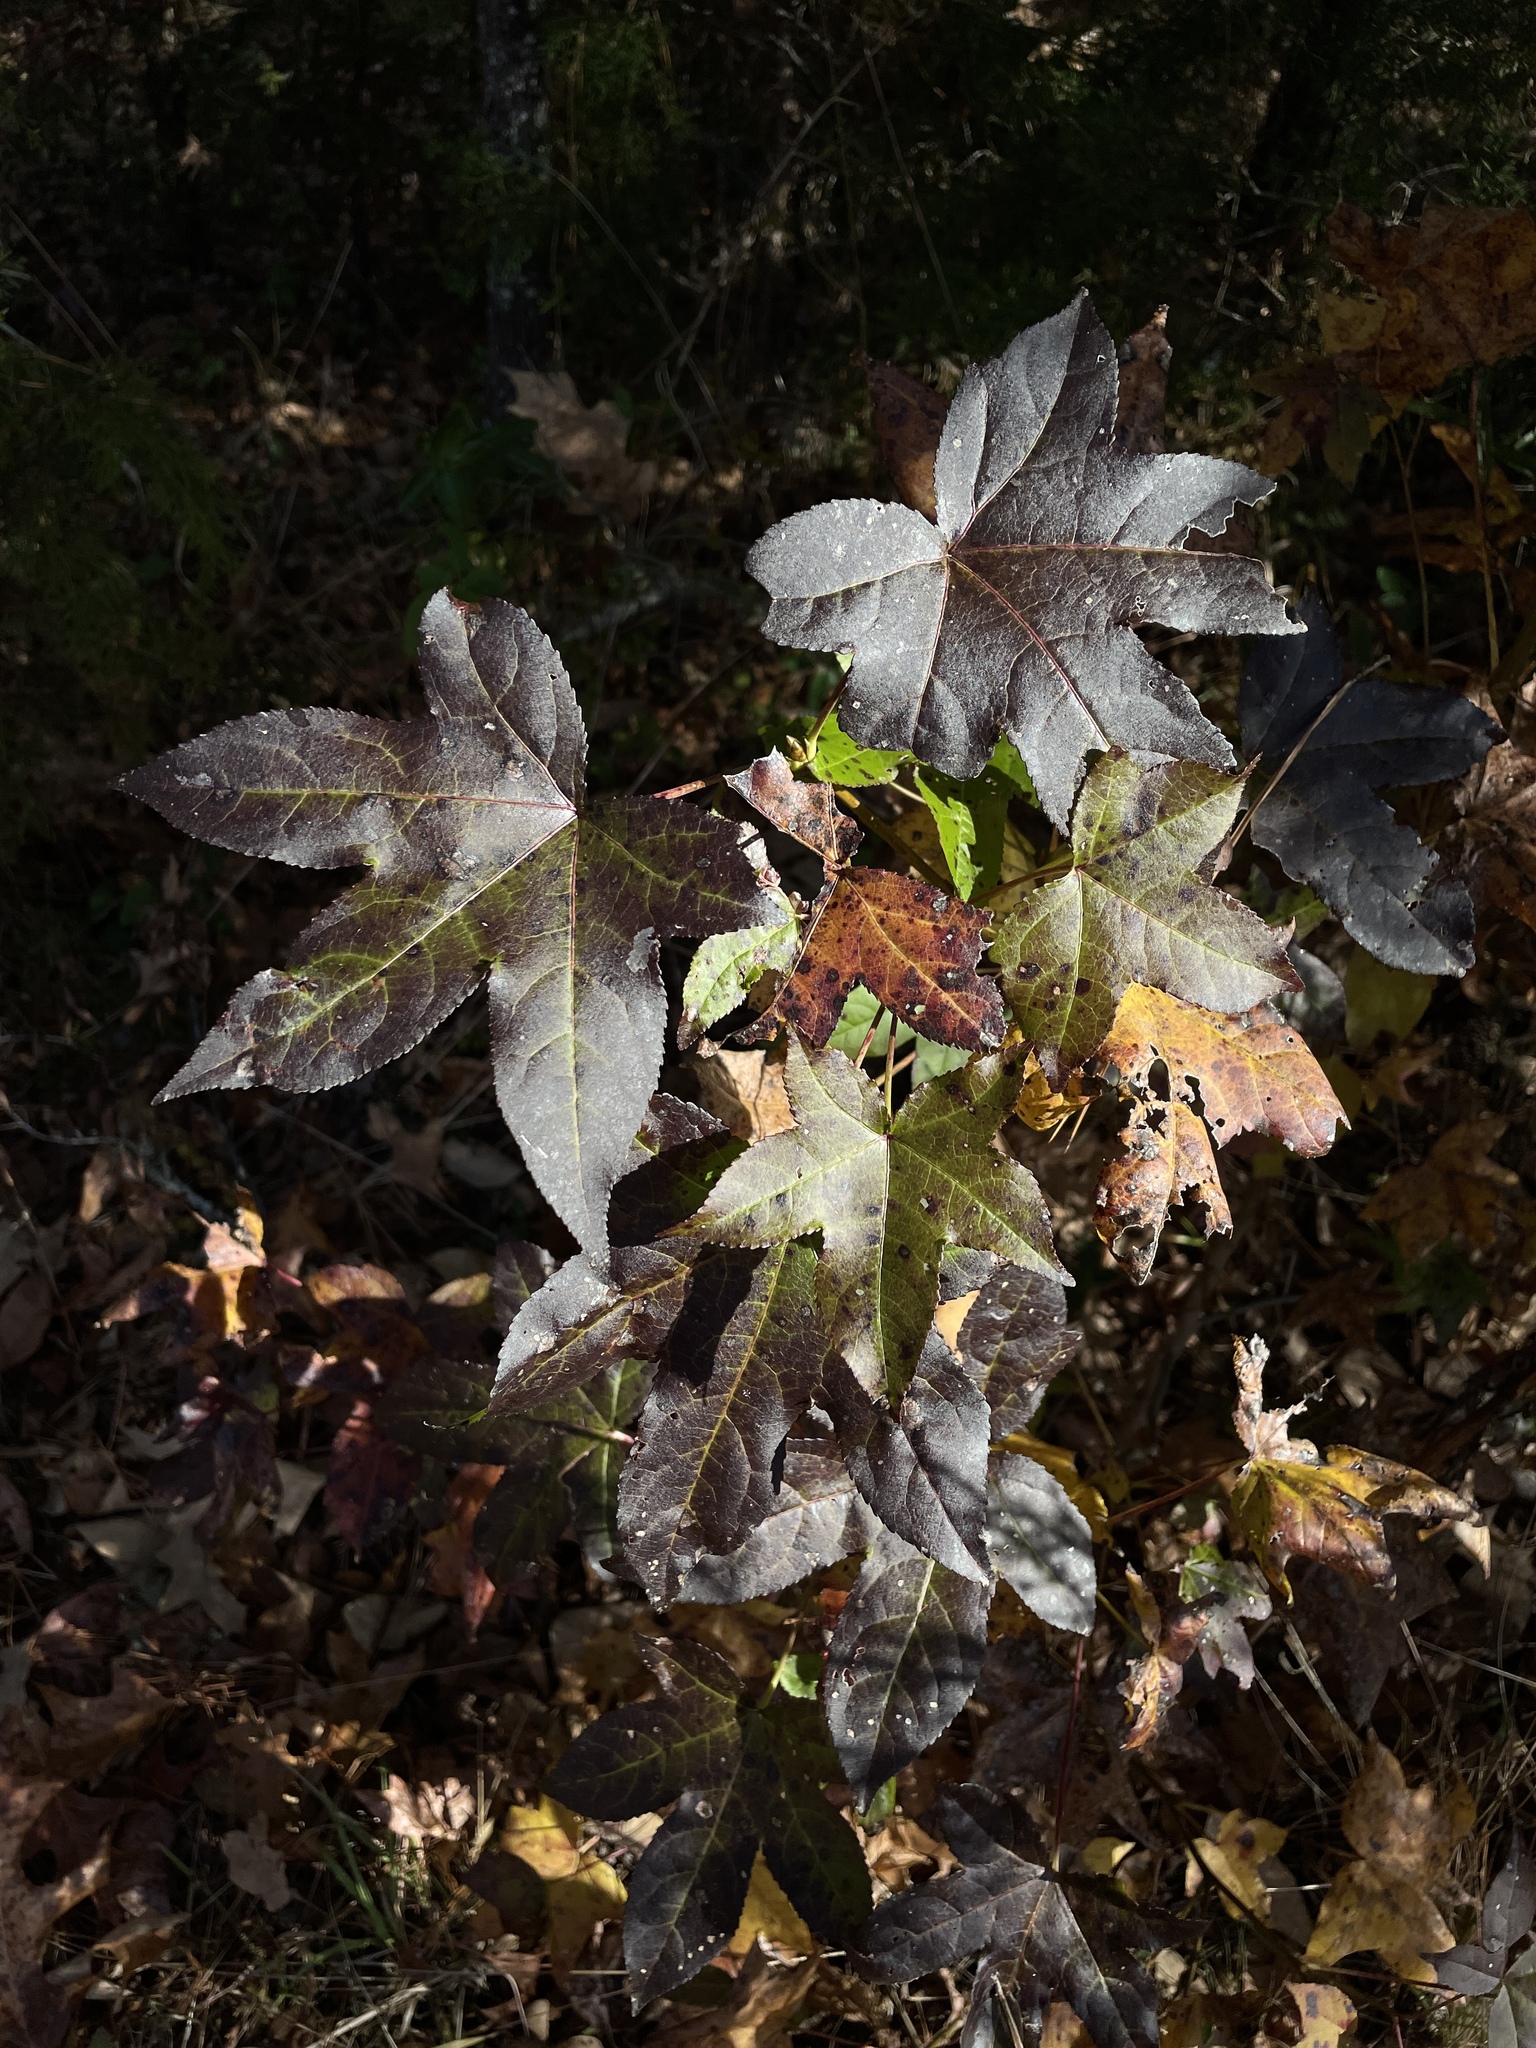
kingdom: Plantae
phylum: Tracheophyta
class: Magnoliopsida
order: Saxifragales
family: Altingiaceae
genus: Liquidambar
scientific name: Liquidambar styraciflua
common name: Sweet gum
